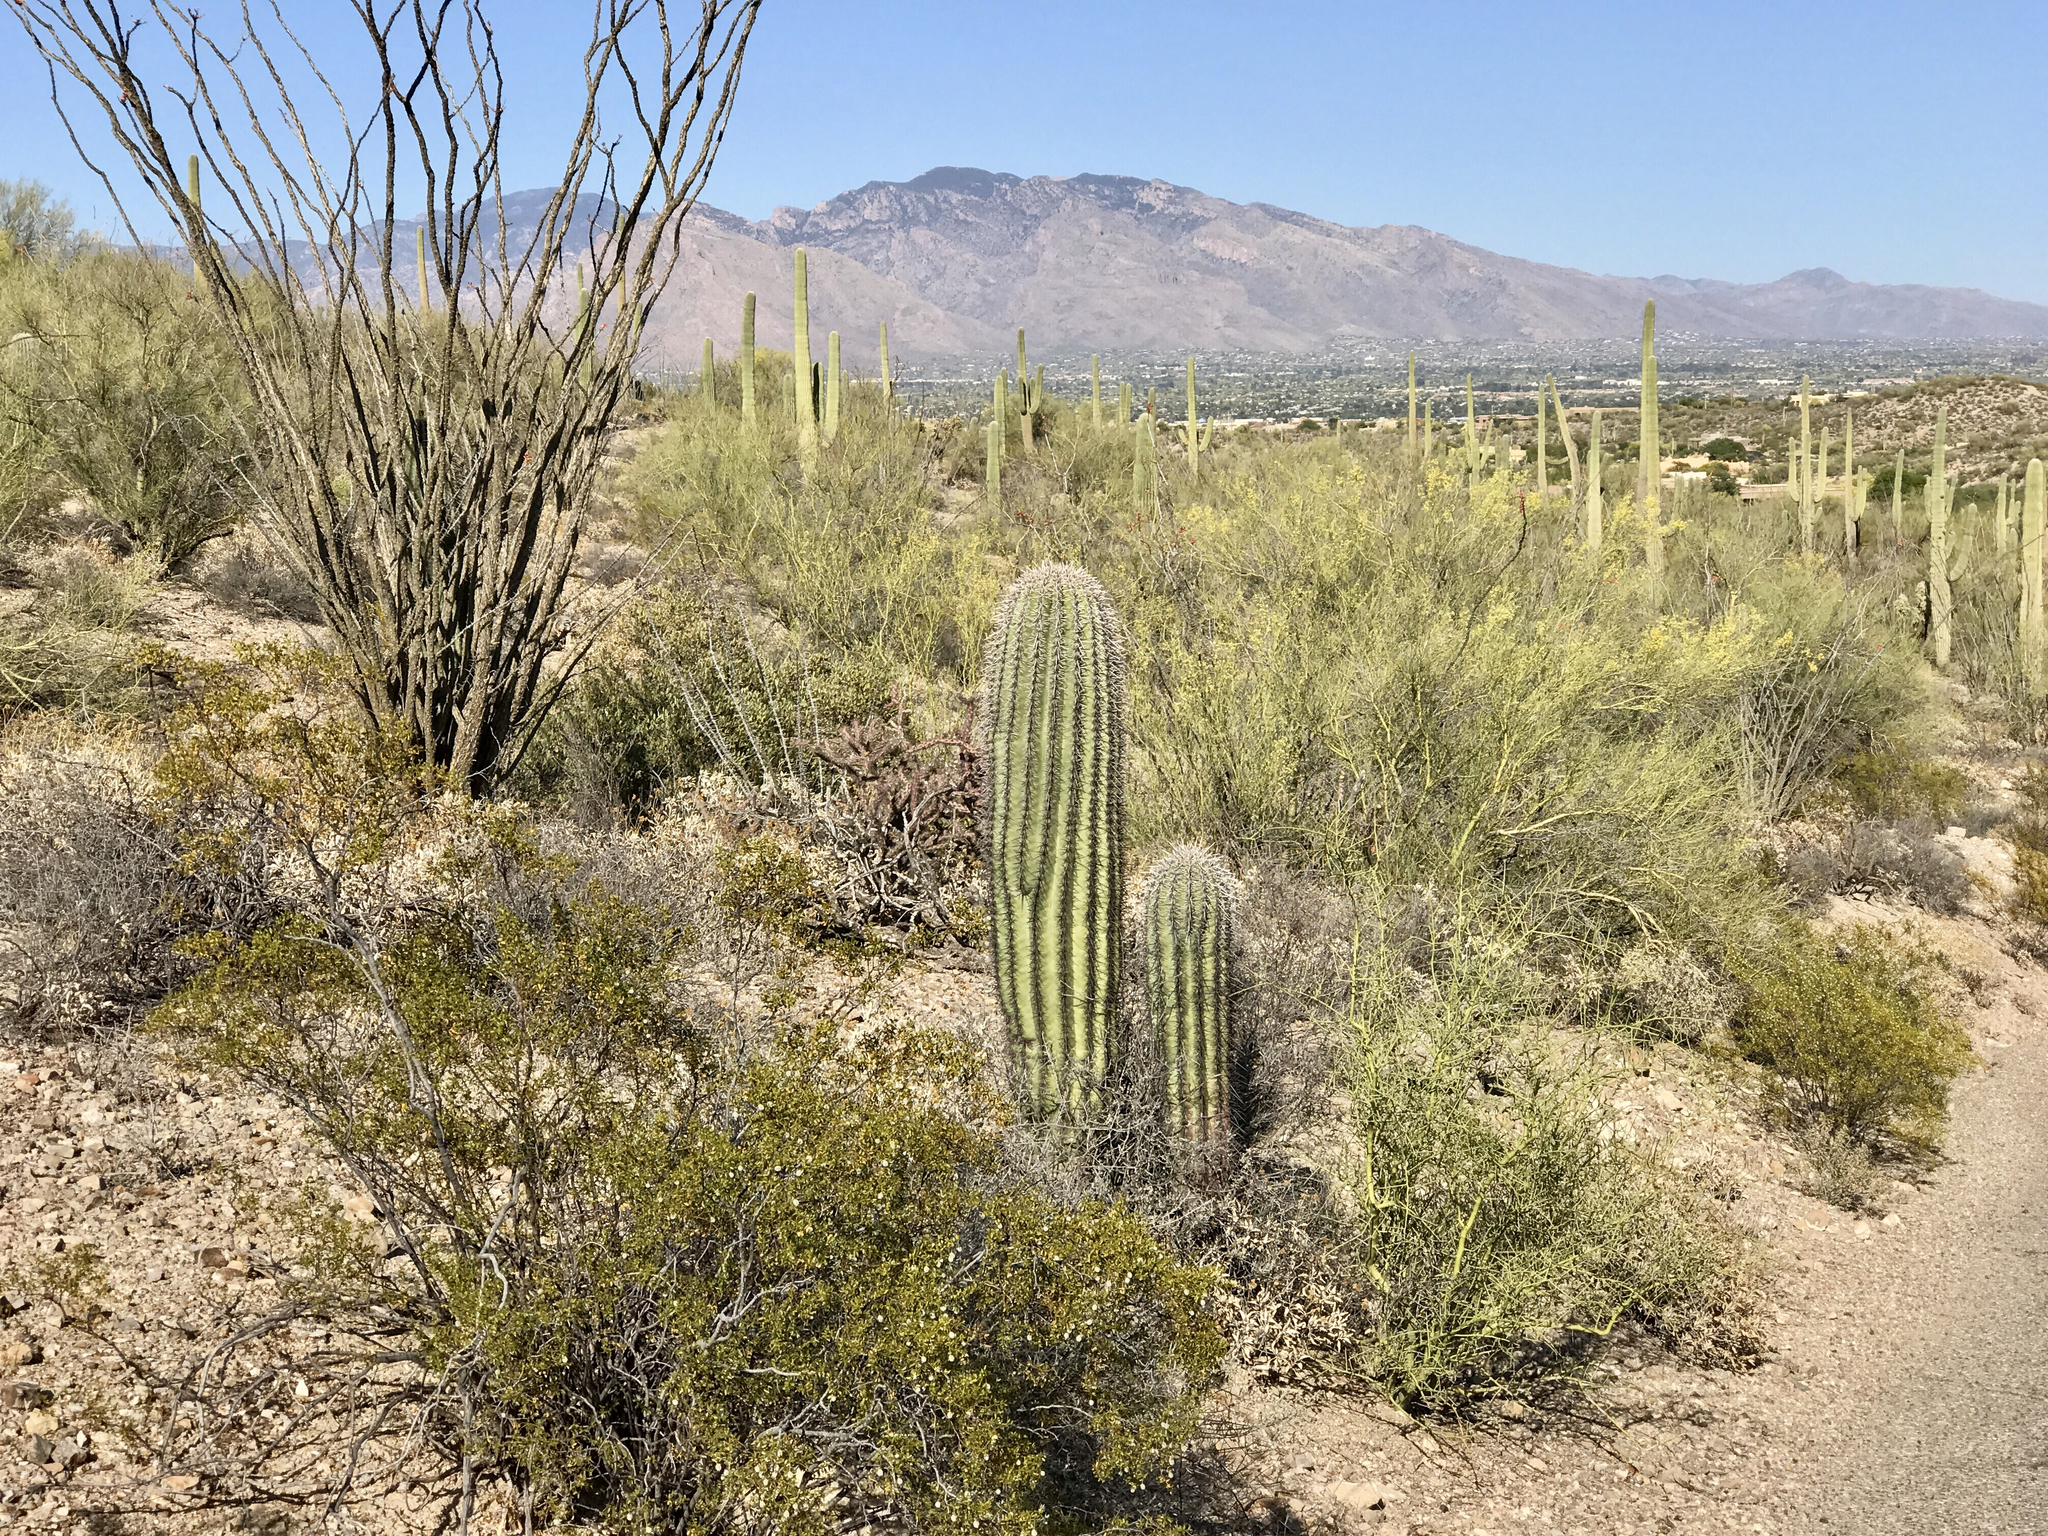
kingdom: Plantae
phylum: Tracheophyta
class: Magnoliopsida
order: Caryophyllales
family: Cactaceae
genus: Carnegiea
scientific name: Carnegiea gigantea
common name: Saguaro
